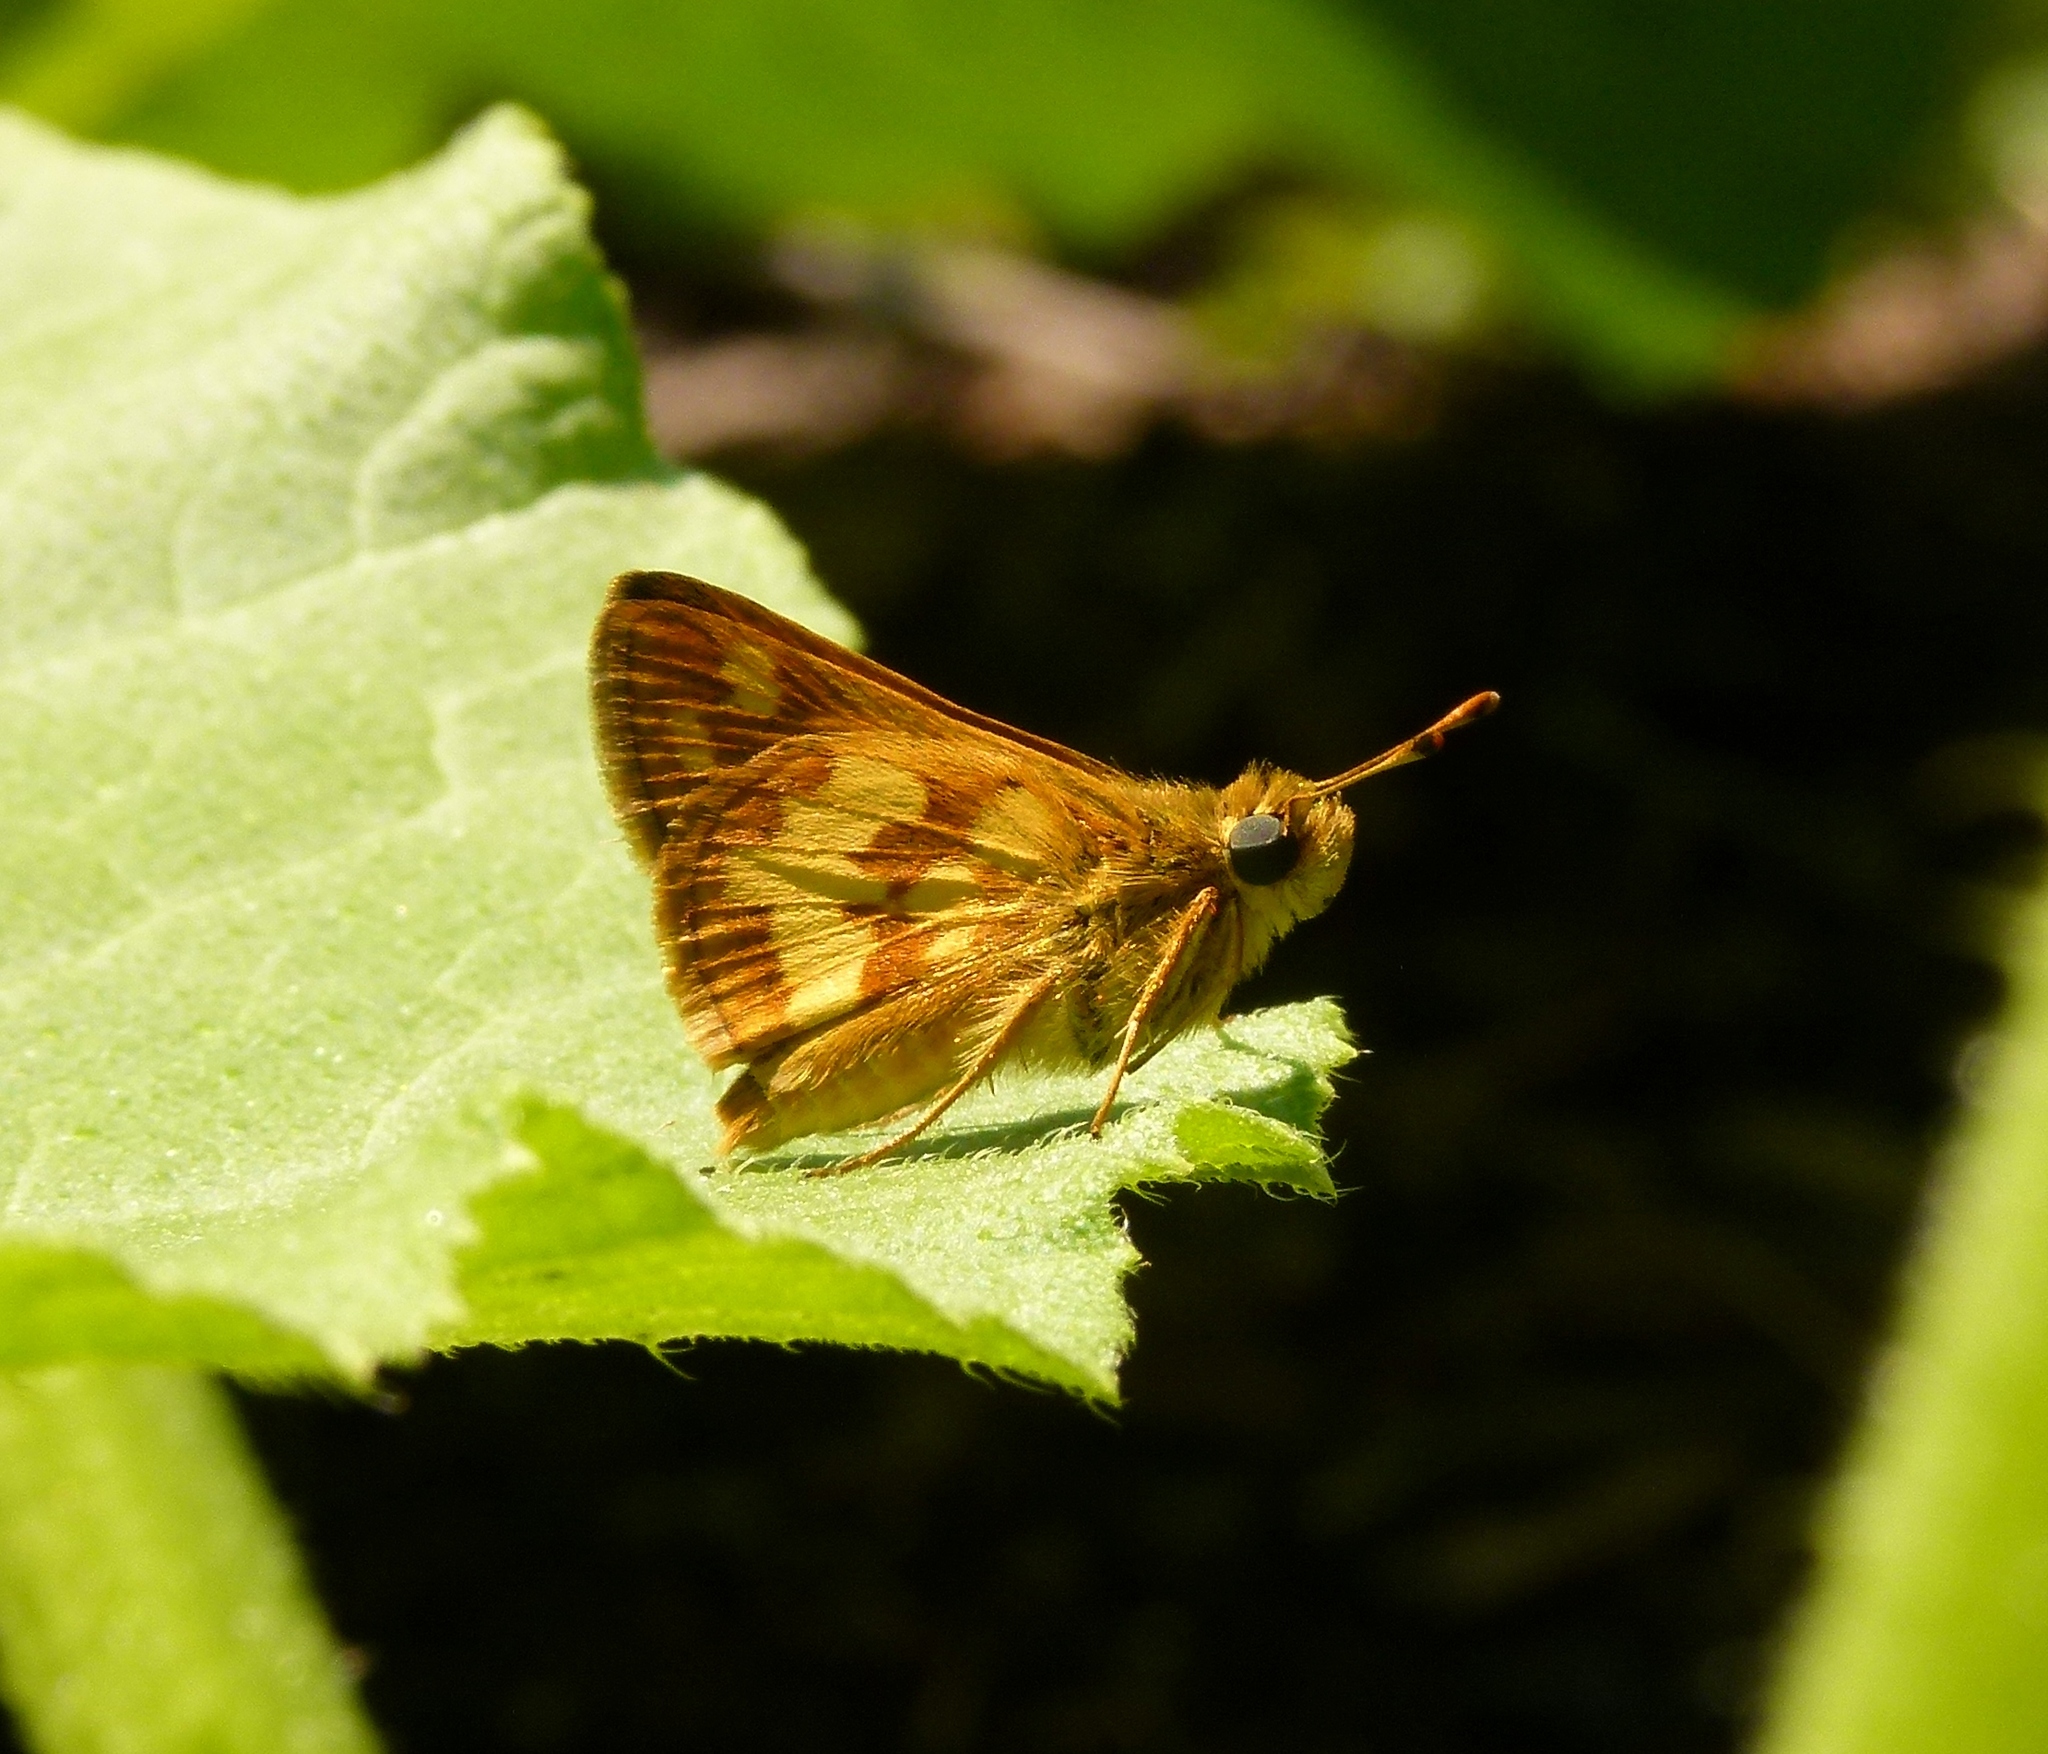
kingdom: Animalia
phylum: Arthropoda
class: Insecta
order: Lepidoptera
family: Hesperiidae
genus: Polites
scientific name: Polites coras
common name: Peck's skipper
